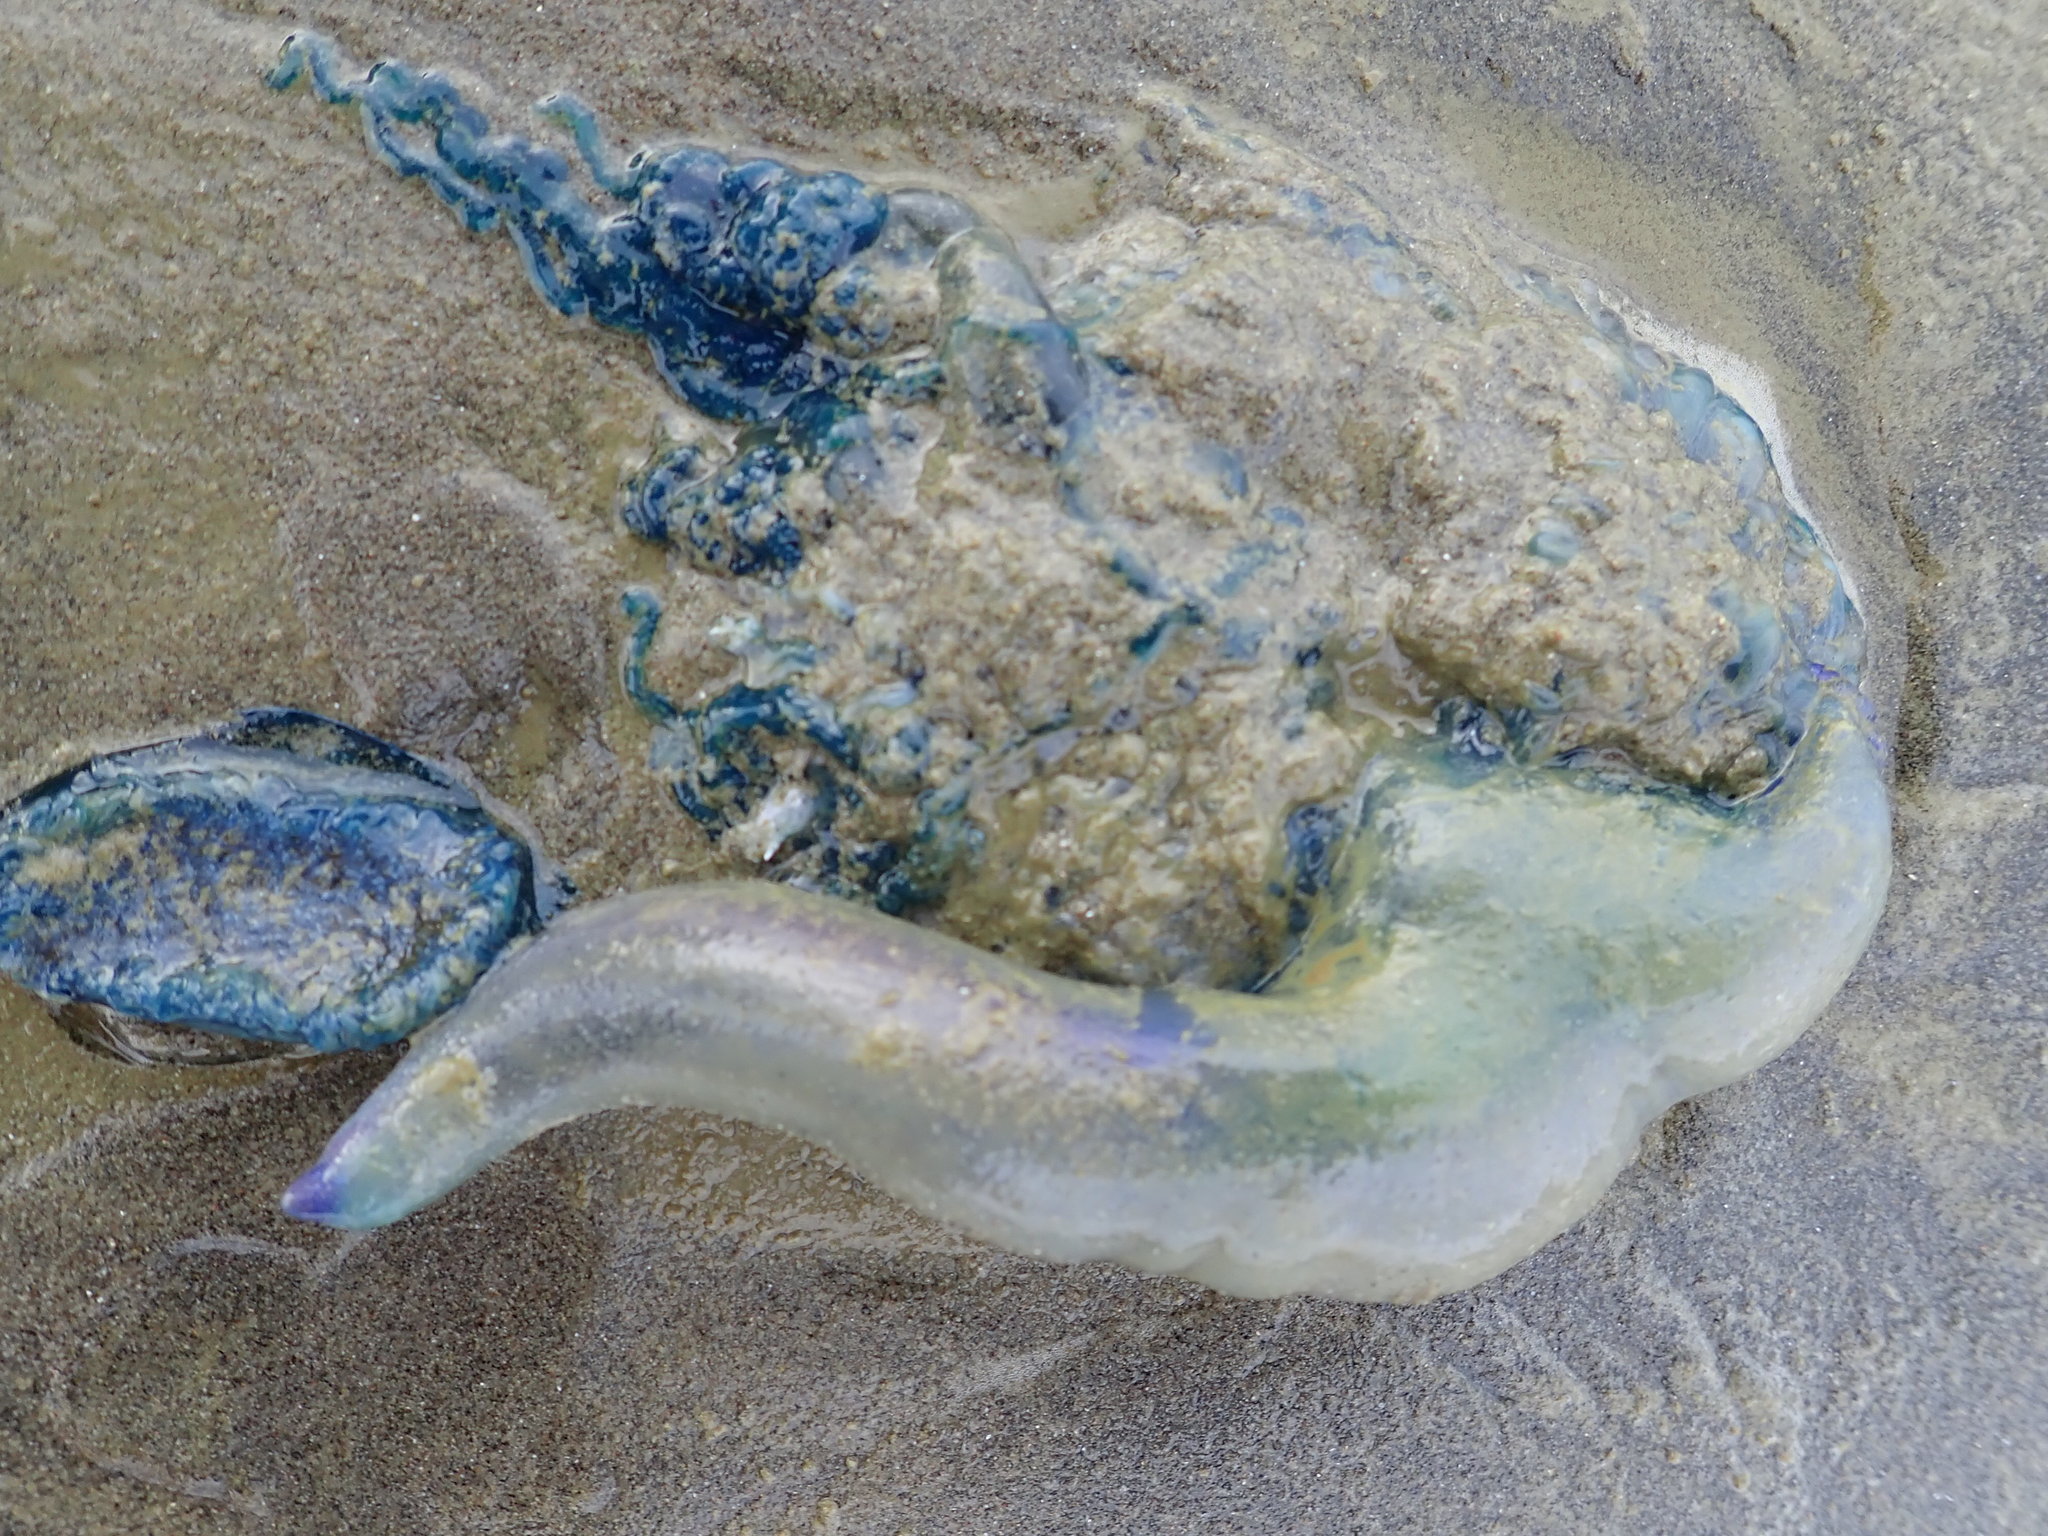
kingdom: Animalia
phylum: Cnidaria
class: Hydrozoa
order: Siphonophorae
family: Physaliidae
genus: Physalia
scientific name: Physalia physalis
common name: Portuguese man-of-war
